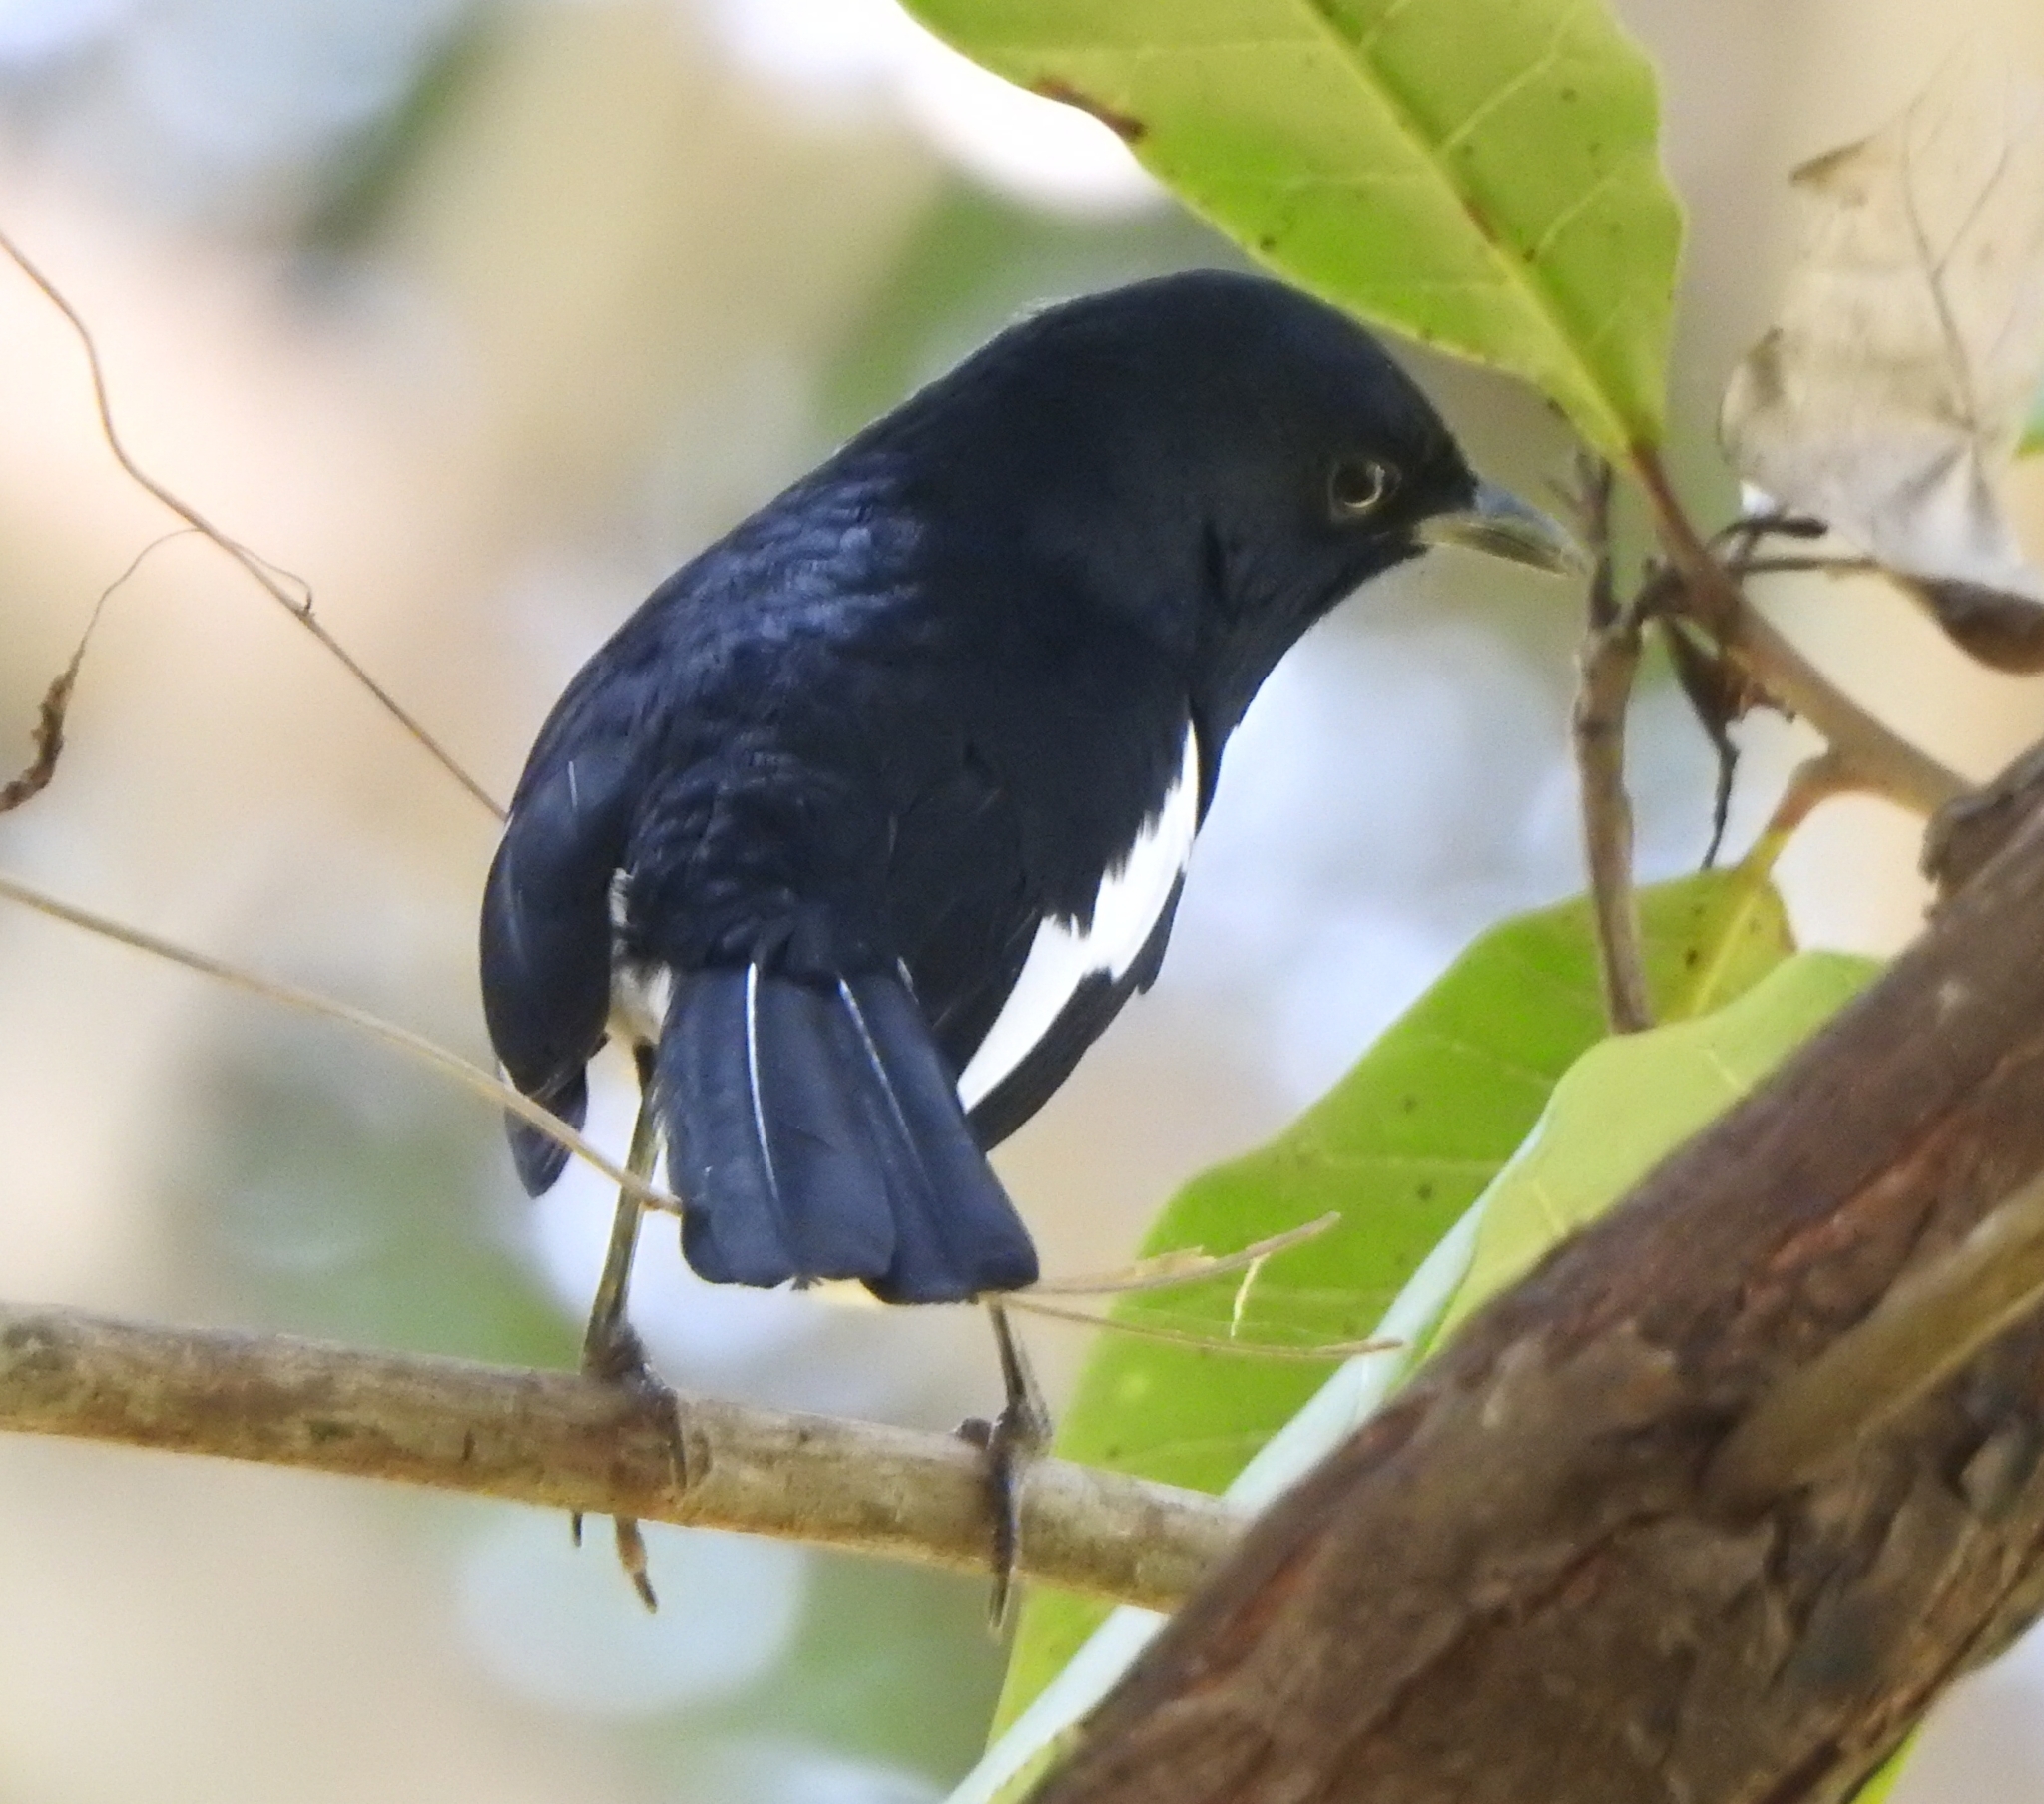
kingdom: Animalia
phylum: Chordata
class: Aves
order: Passeriformes
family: Muscicapidae
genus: Copsychus
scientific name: Copsychus saularis
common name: Oriental magpie-robin
